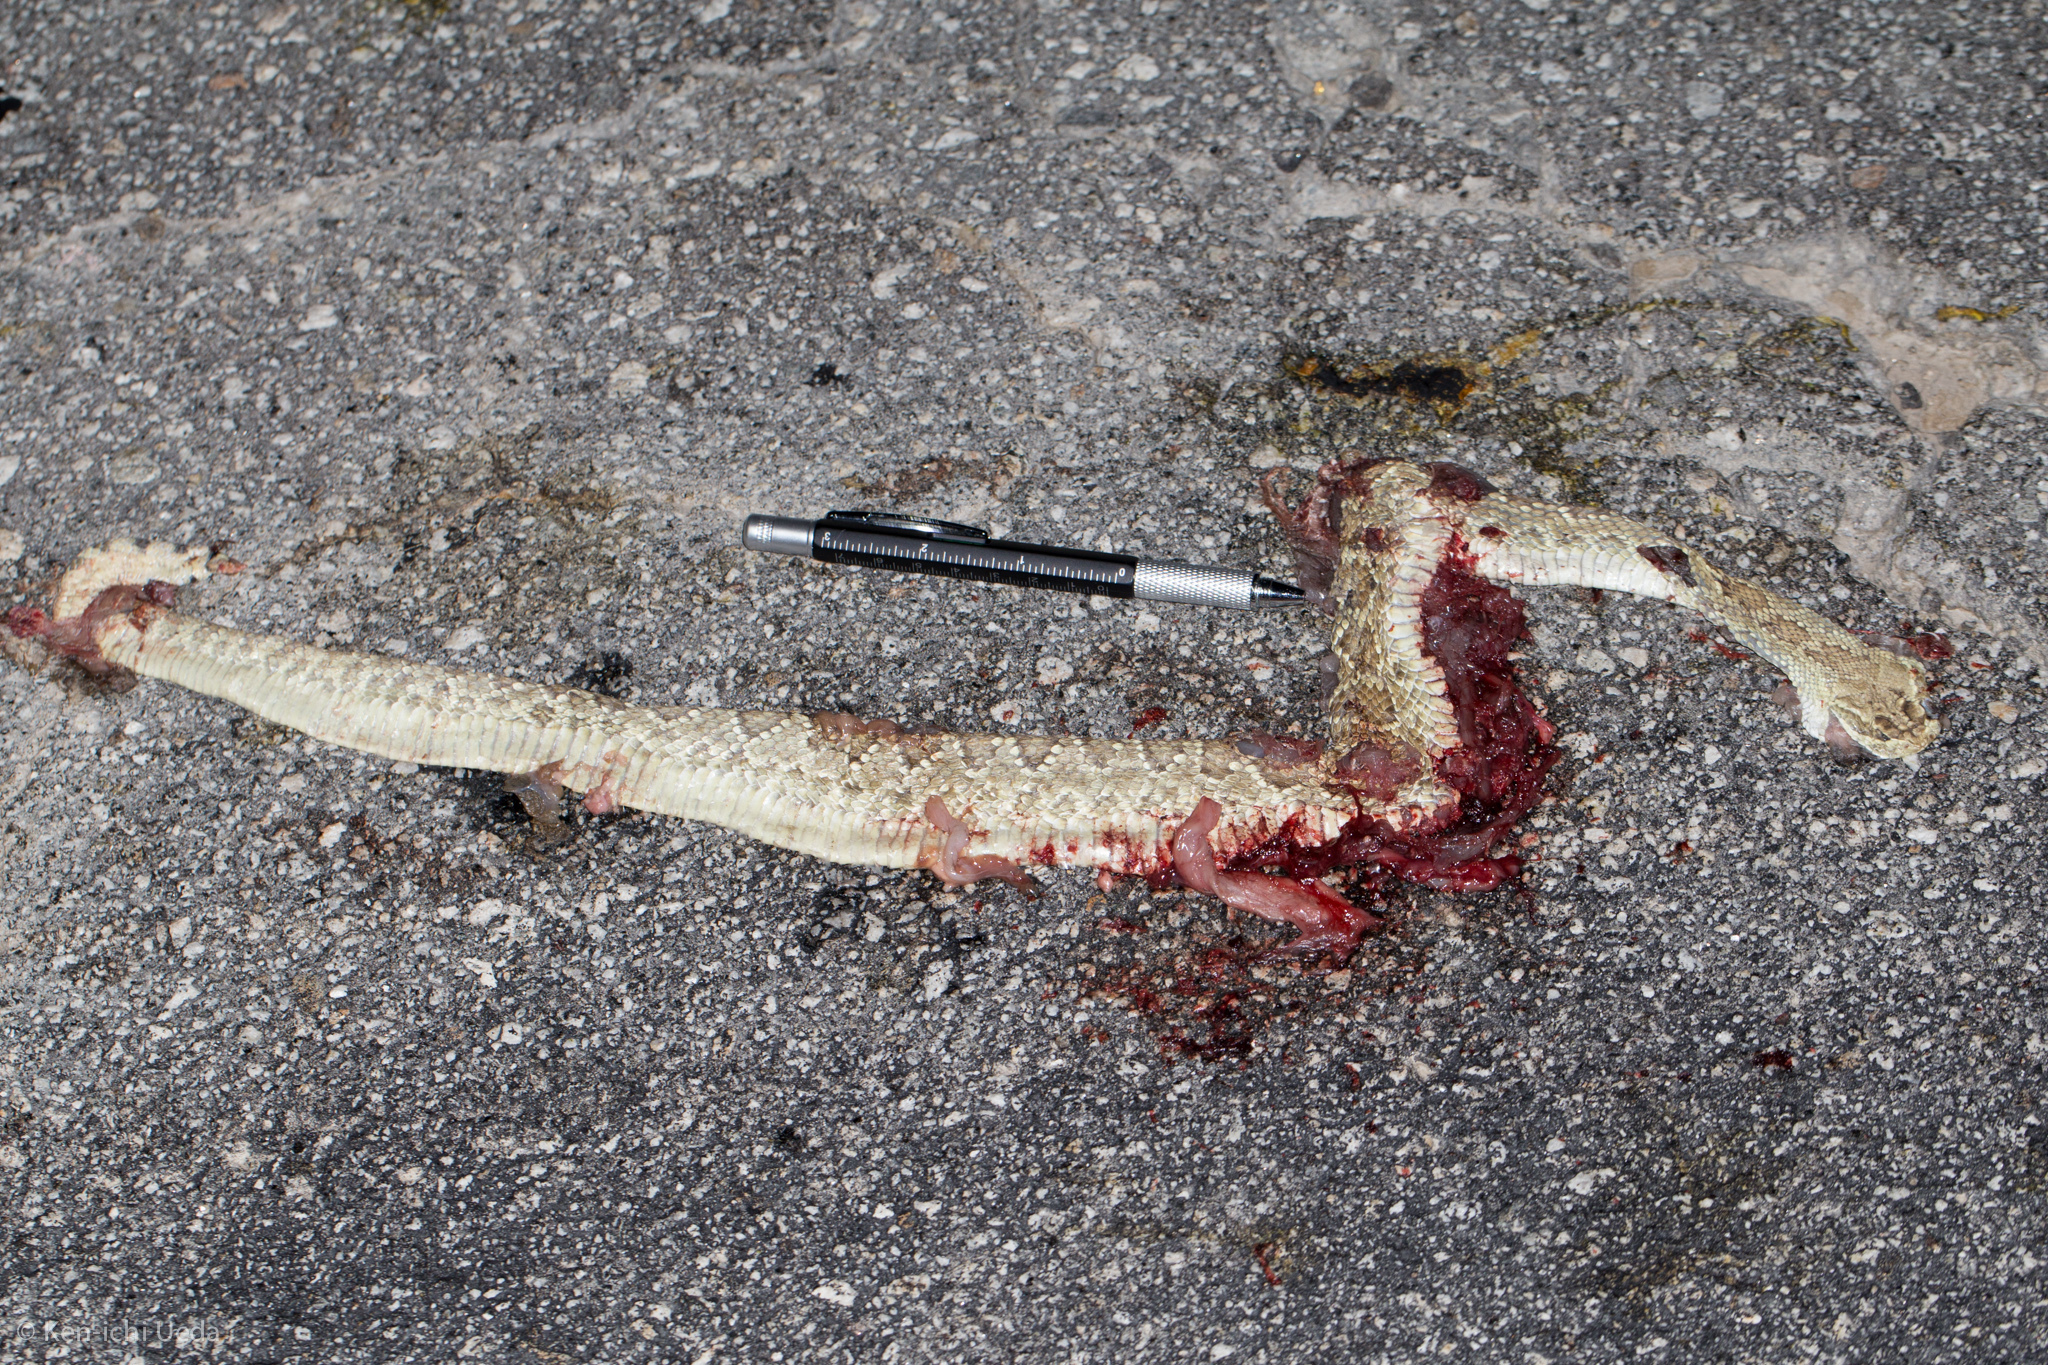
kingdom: Animalia
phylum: Chordata
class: Squamata
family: Viperidae
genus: Crotalus
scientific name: Crotalus scutulatus
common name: Scutulatus
